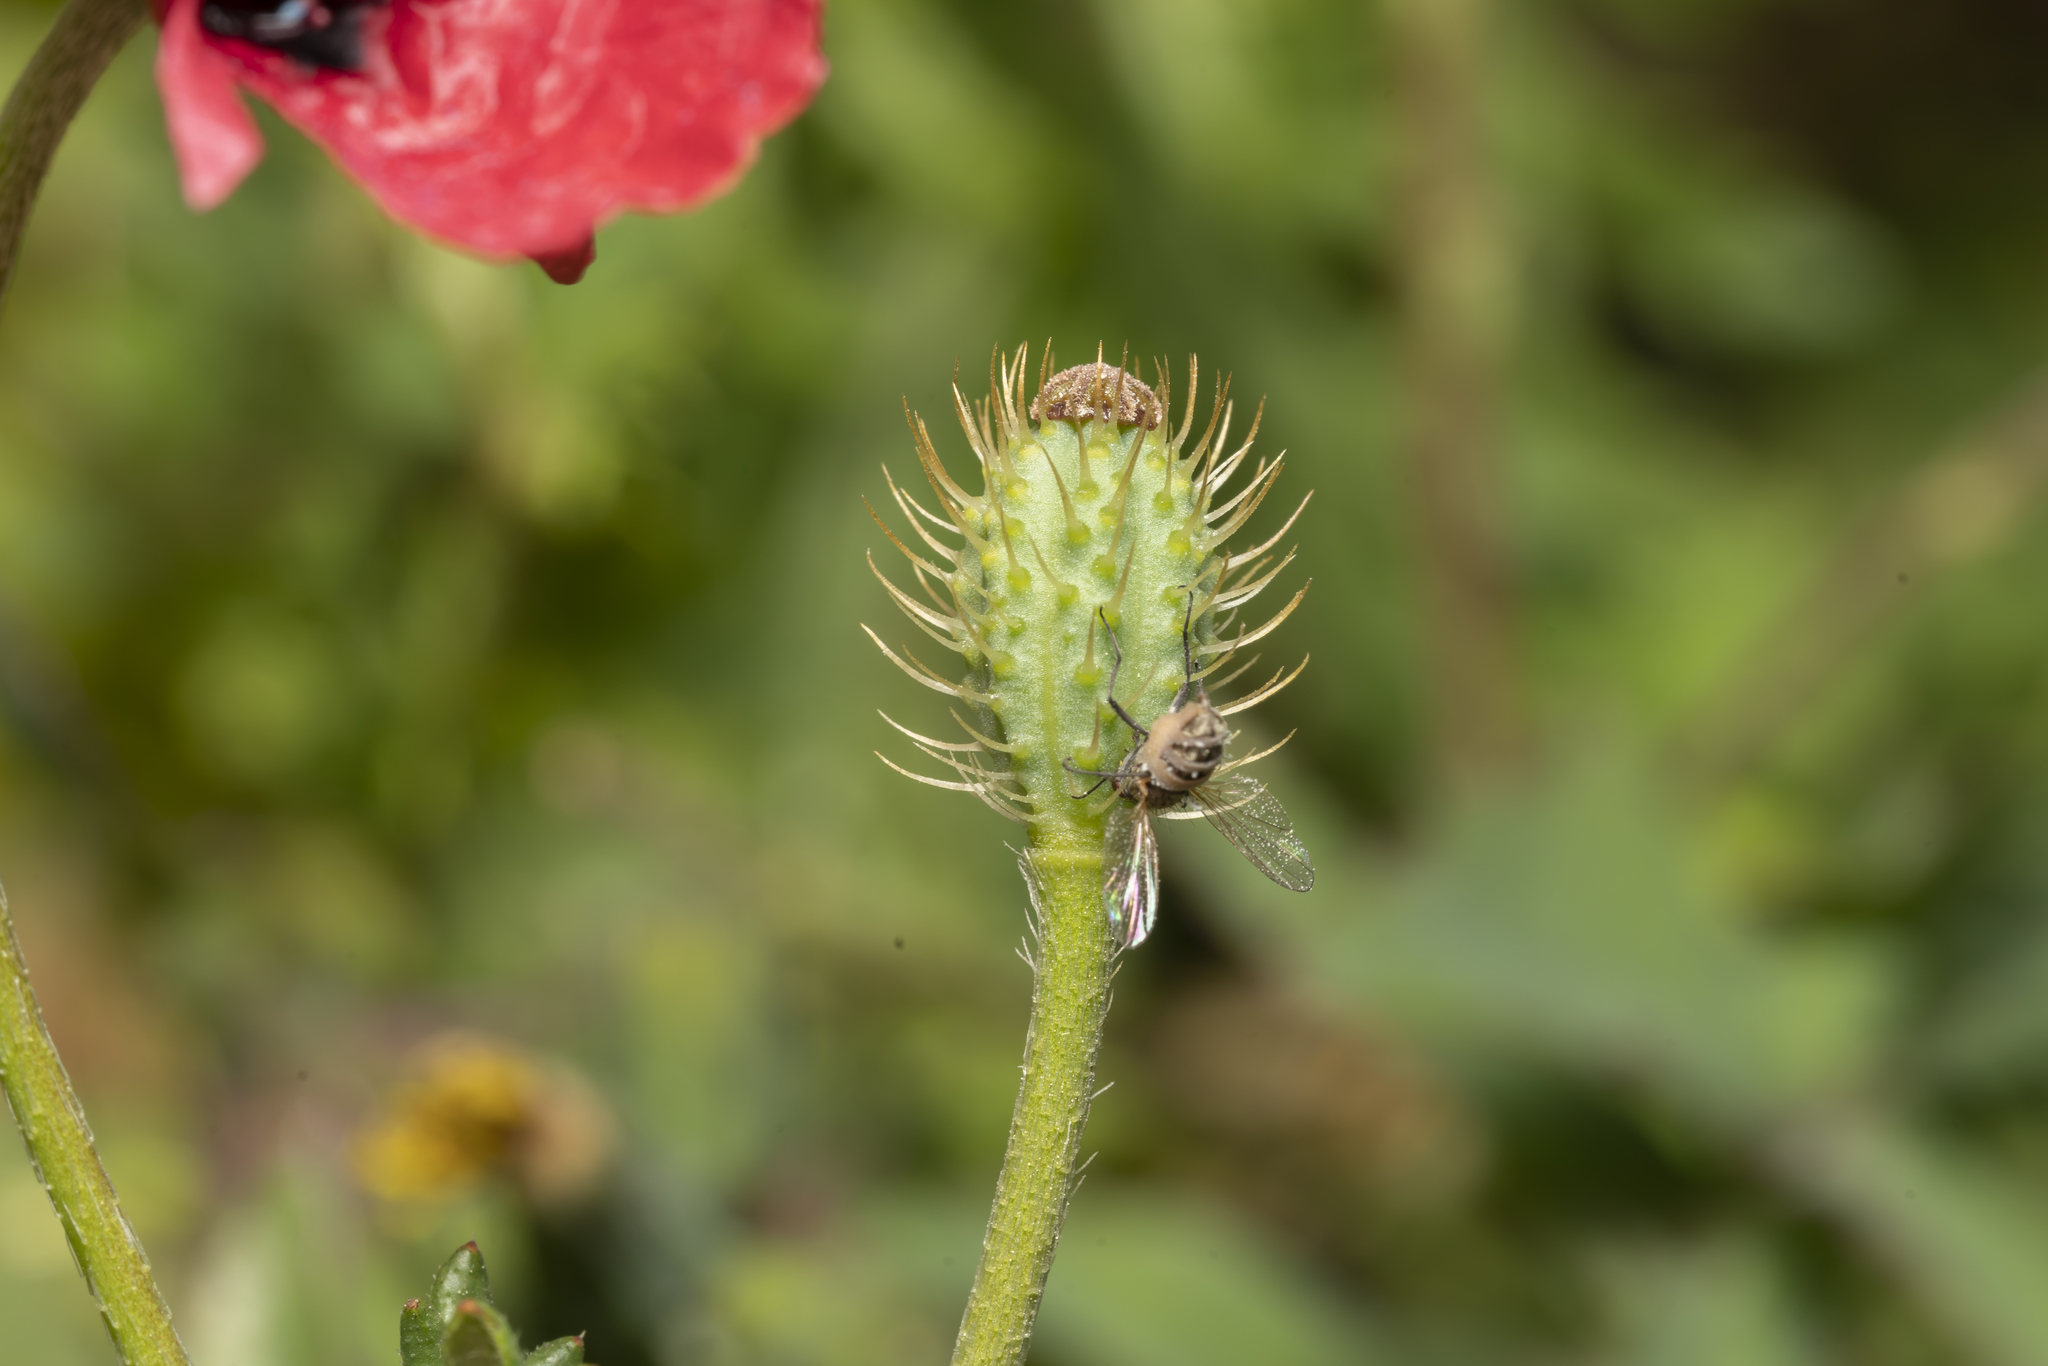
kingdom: Plantae
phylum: Tracheophyta
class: Magnoliopsida
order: Ranunculales
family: Papaveraceae
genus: Roemeria
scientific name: Roemeria hispida
